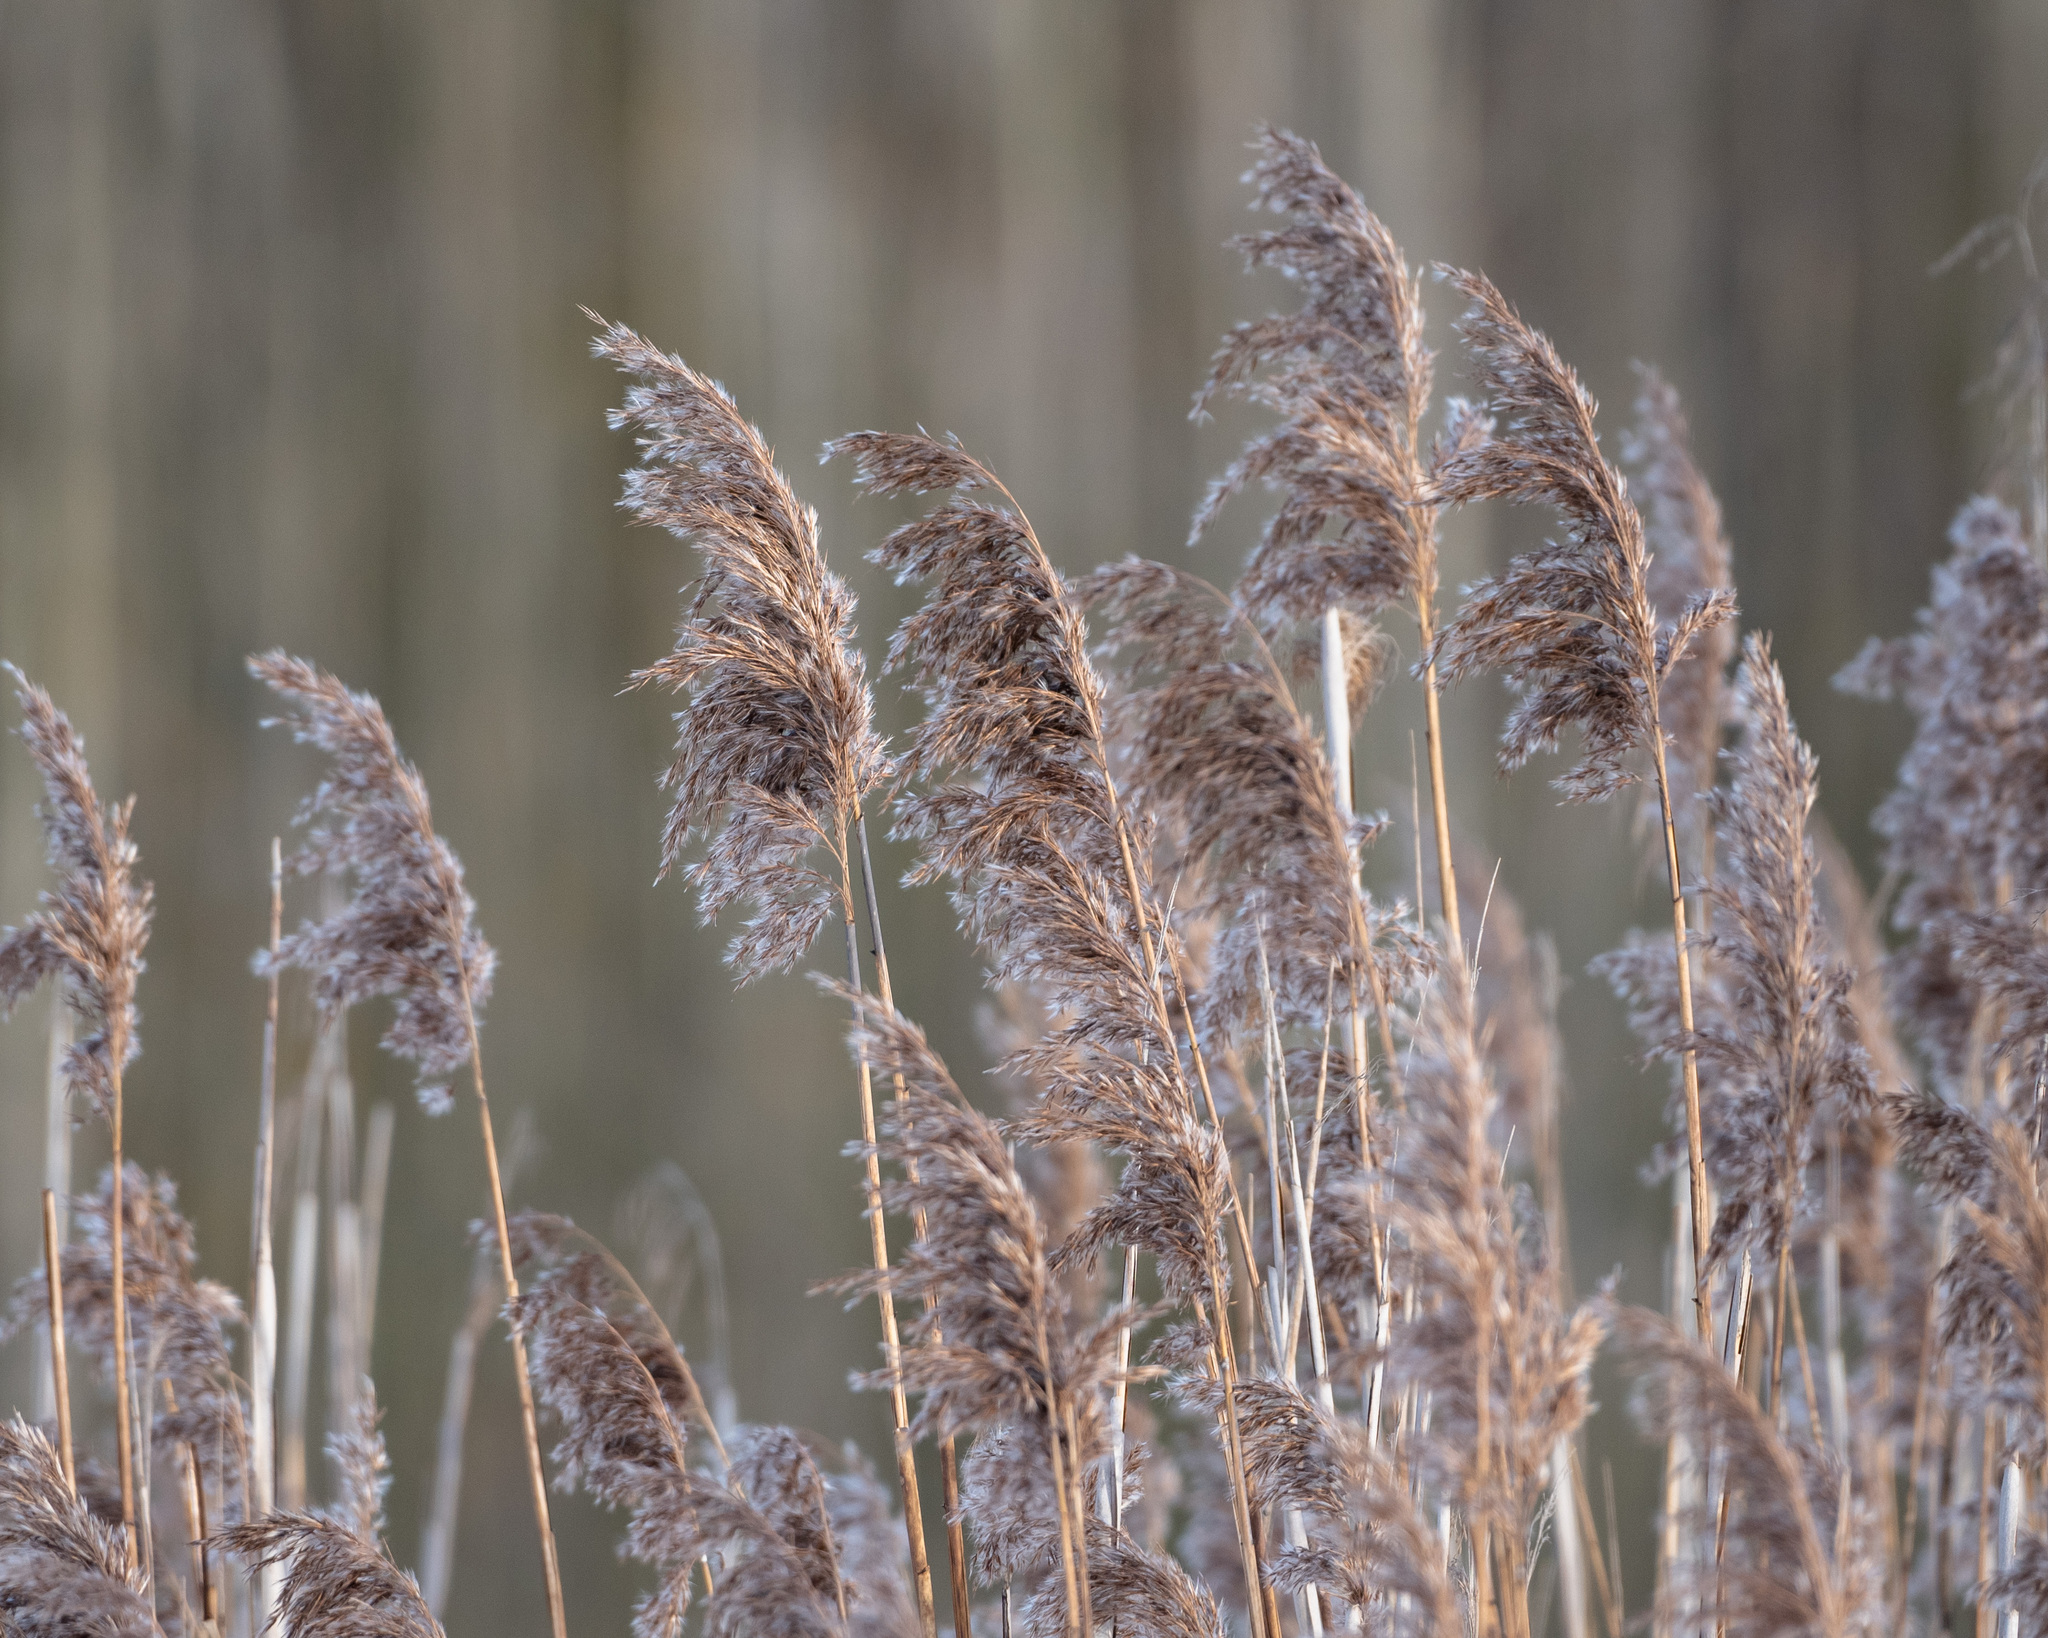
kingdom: Plantae
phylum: Tracheophyta
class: Liliopsida
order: Poales
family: Poaceae
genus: Phragmites
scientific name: Phragmites australis
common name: Common reed
